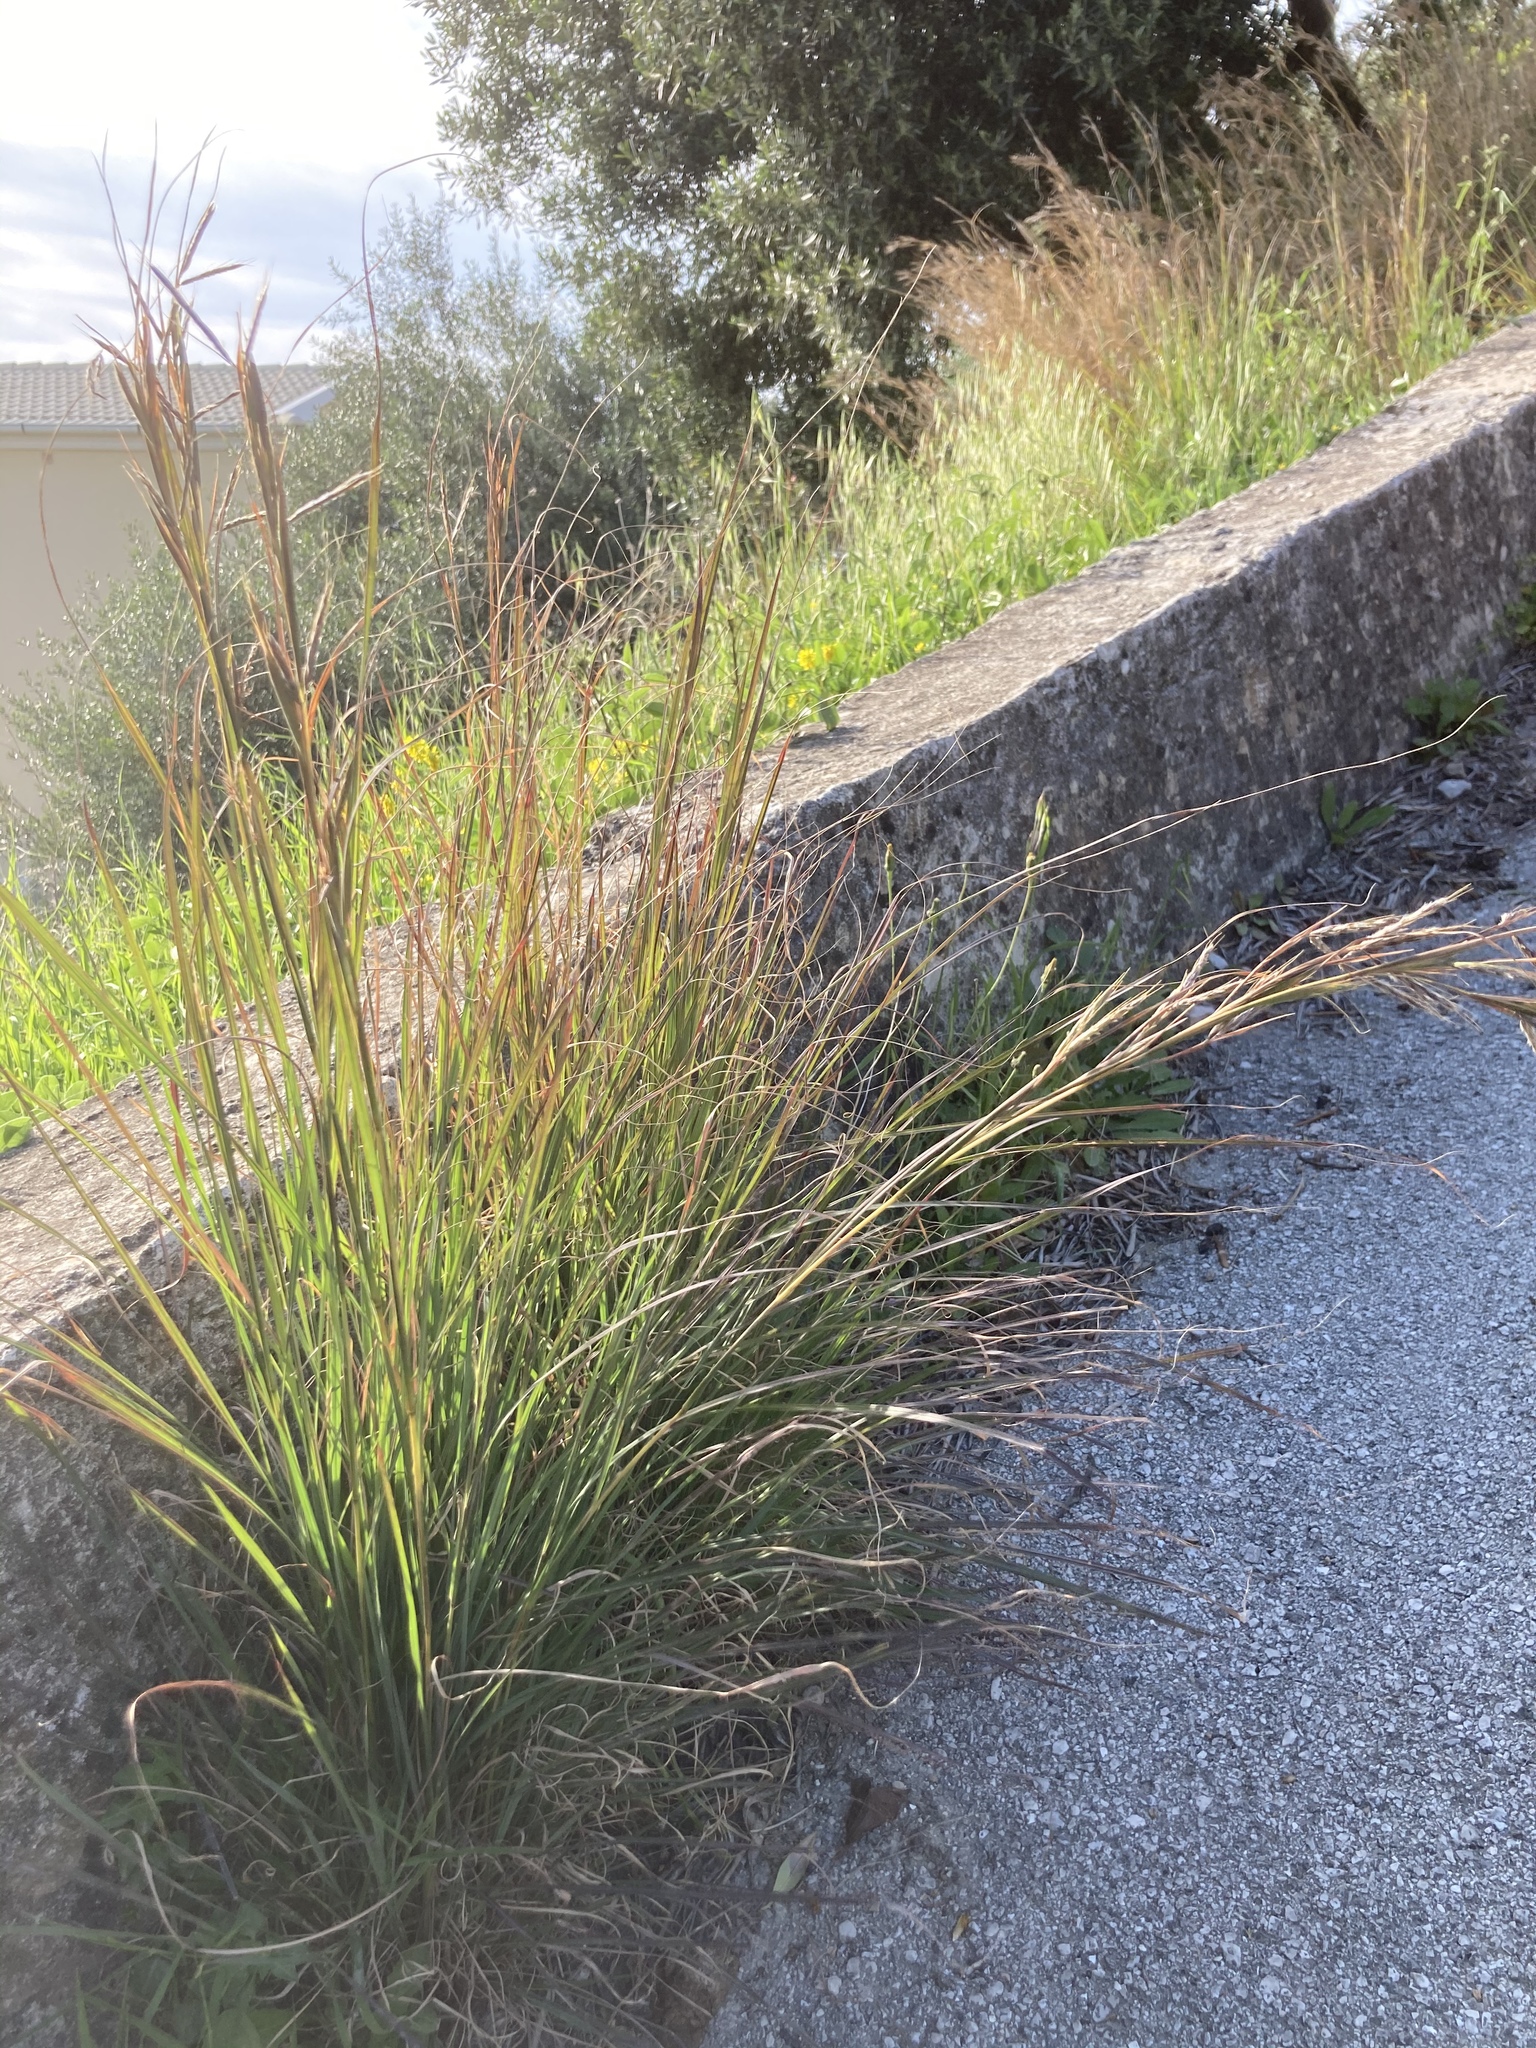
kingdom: Plantae
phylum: Tracheophyta
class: Liliopsida
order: Poales
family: Poaceae
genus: Hyparrhenia
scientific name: Hyparrhenia hirta
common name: Thatching grass
